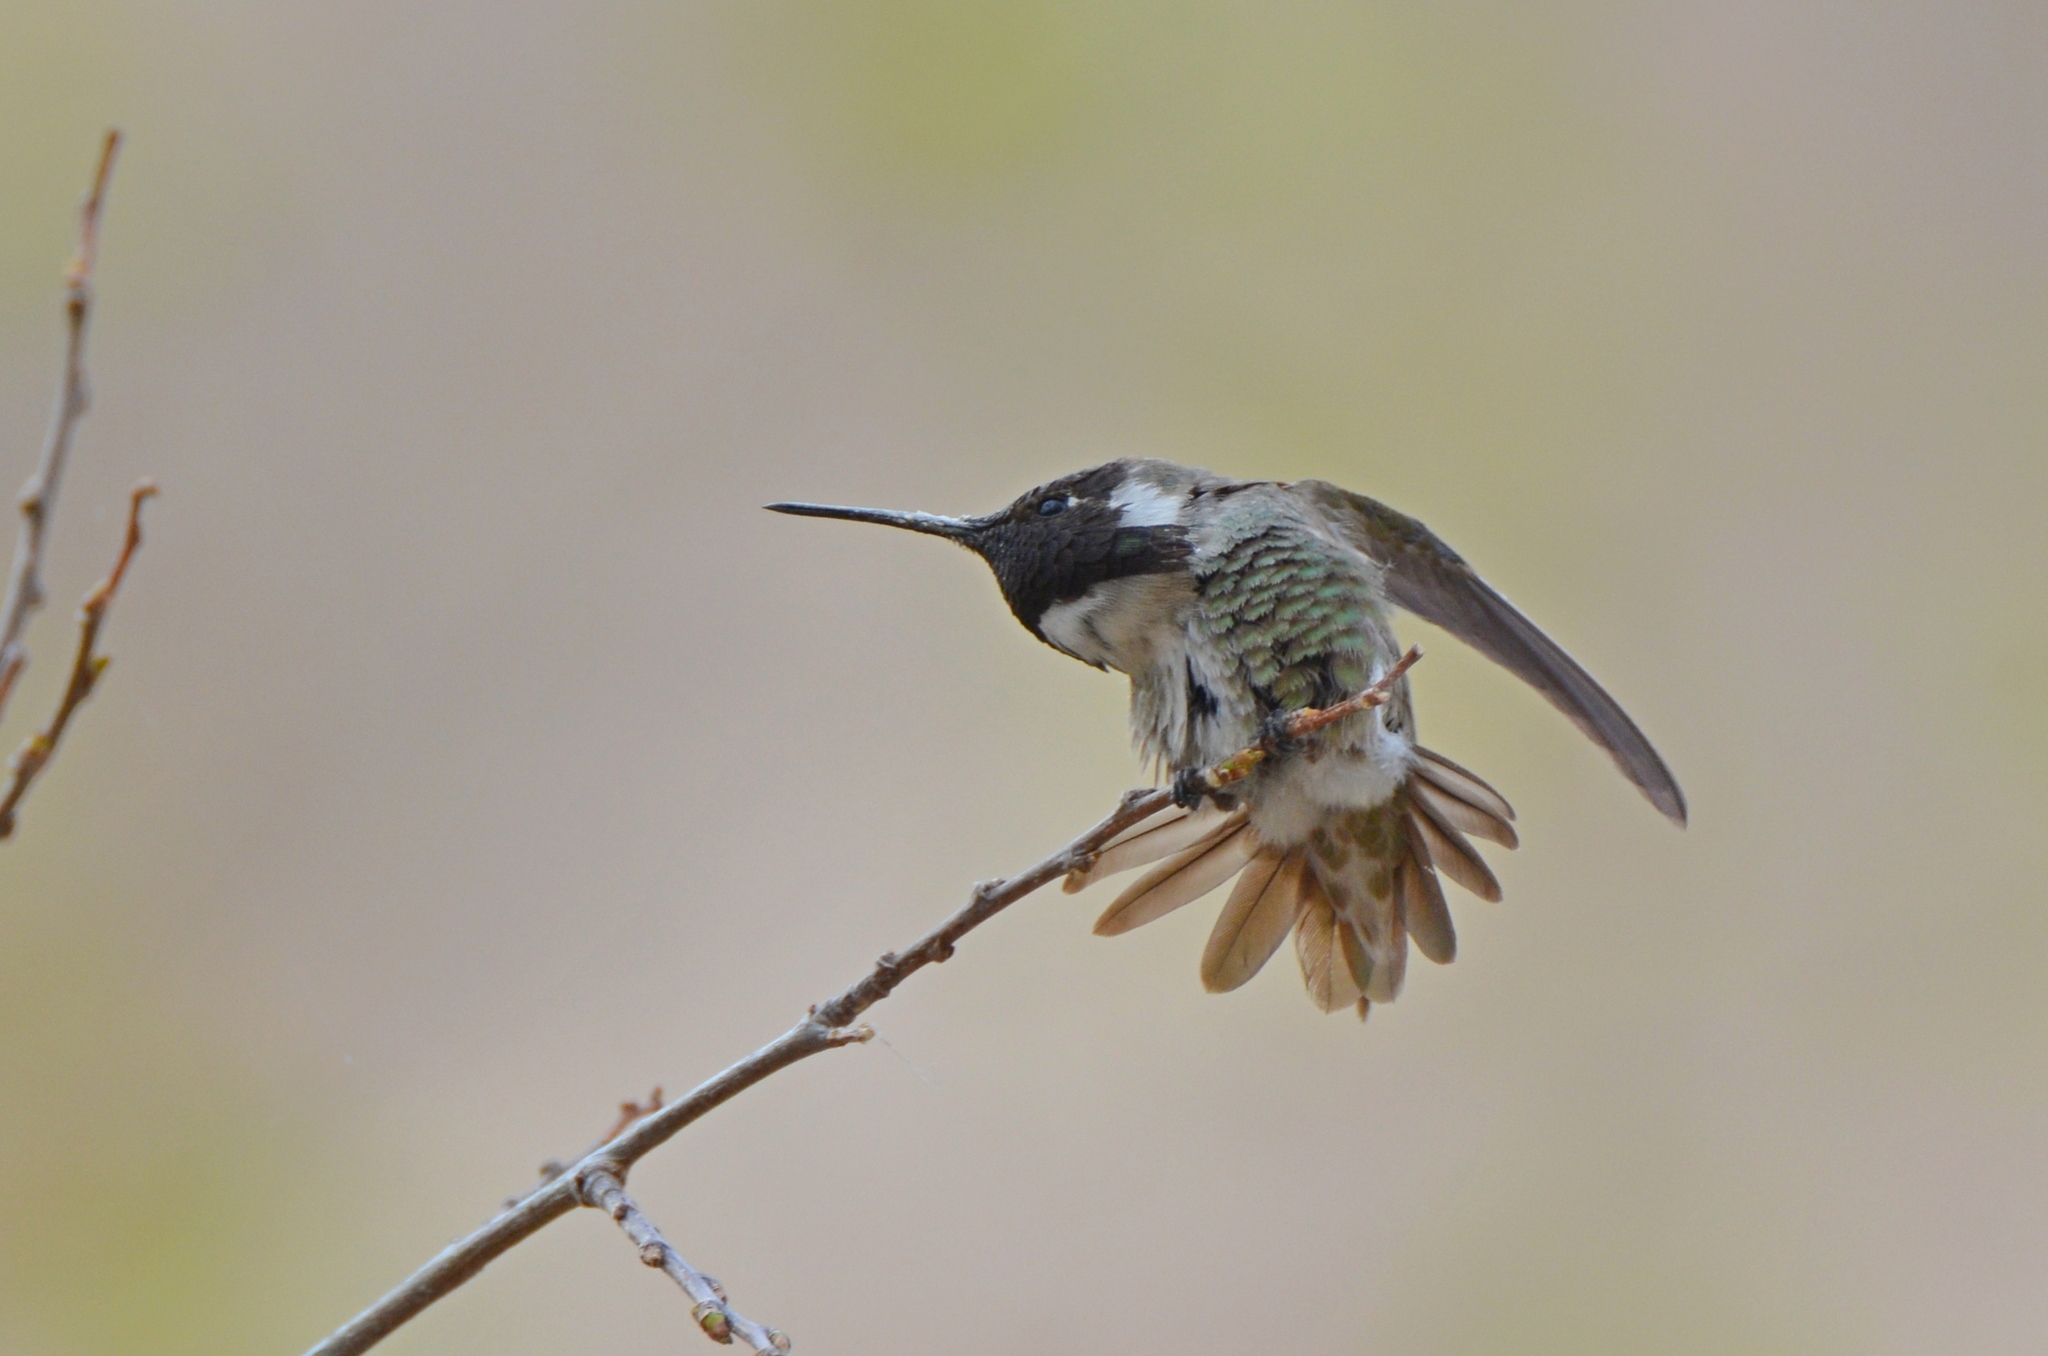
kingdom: Animalia
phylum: Chordata
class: Aves
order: Apodiformes
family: Trochilidae
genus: Calypte
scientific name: Calypte costae
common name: Costa's hummingbird
